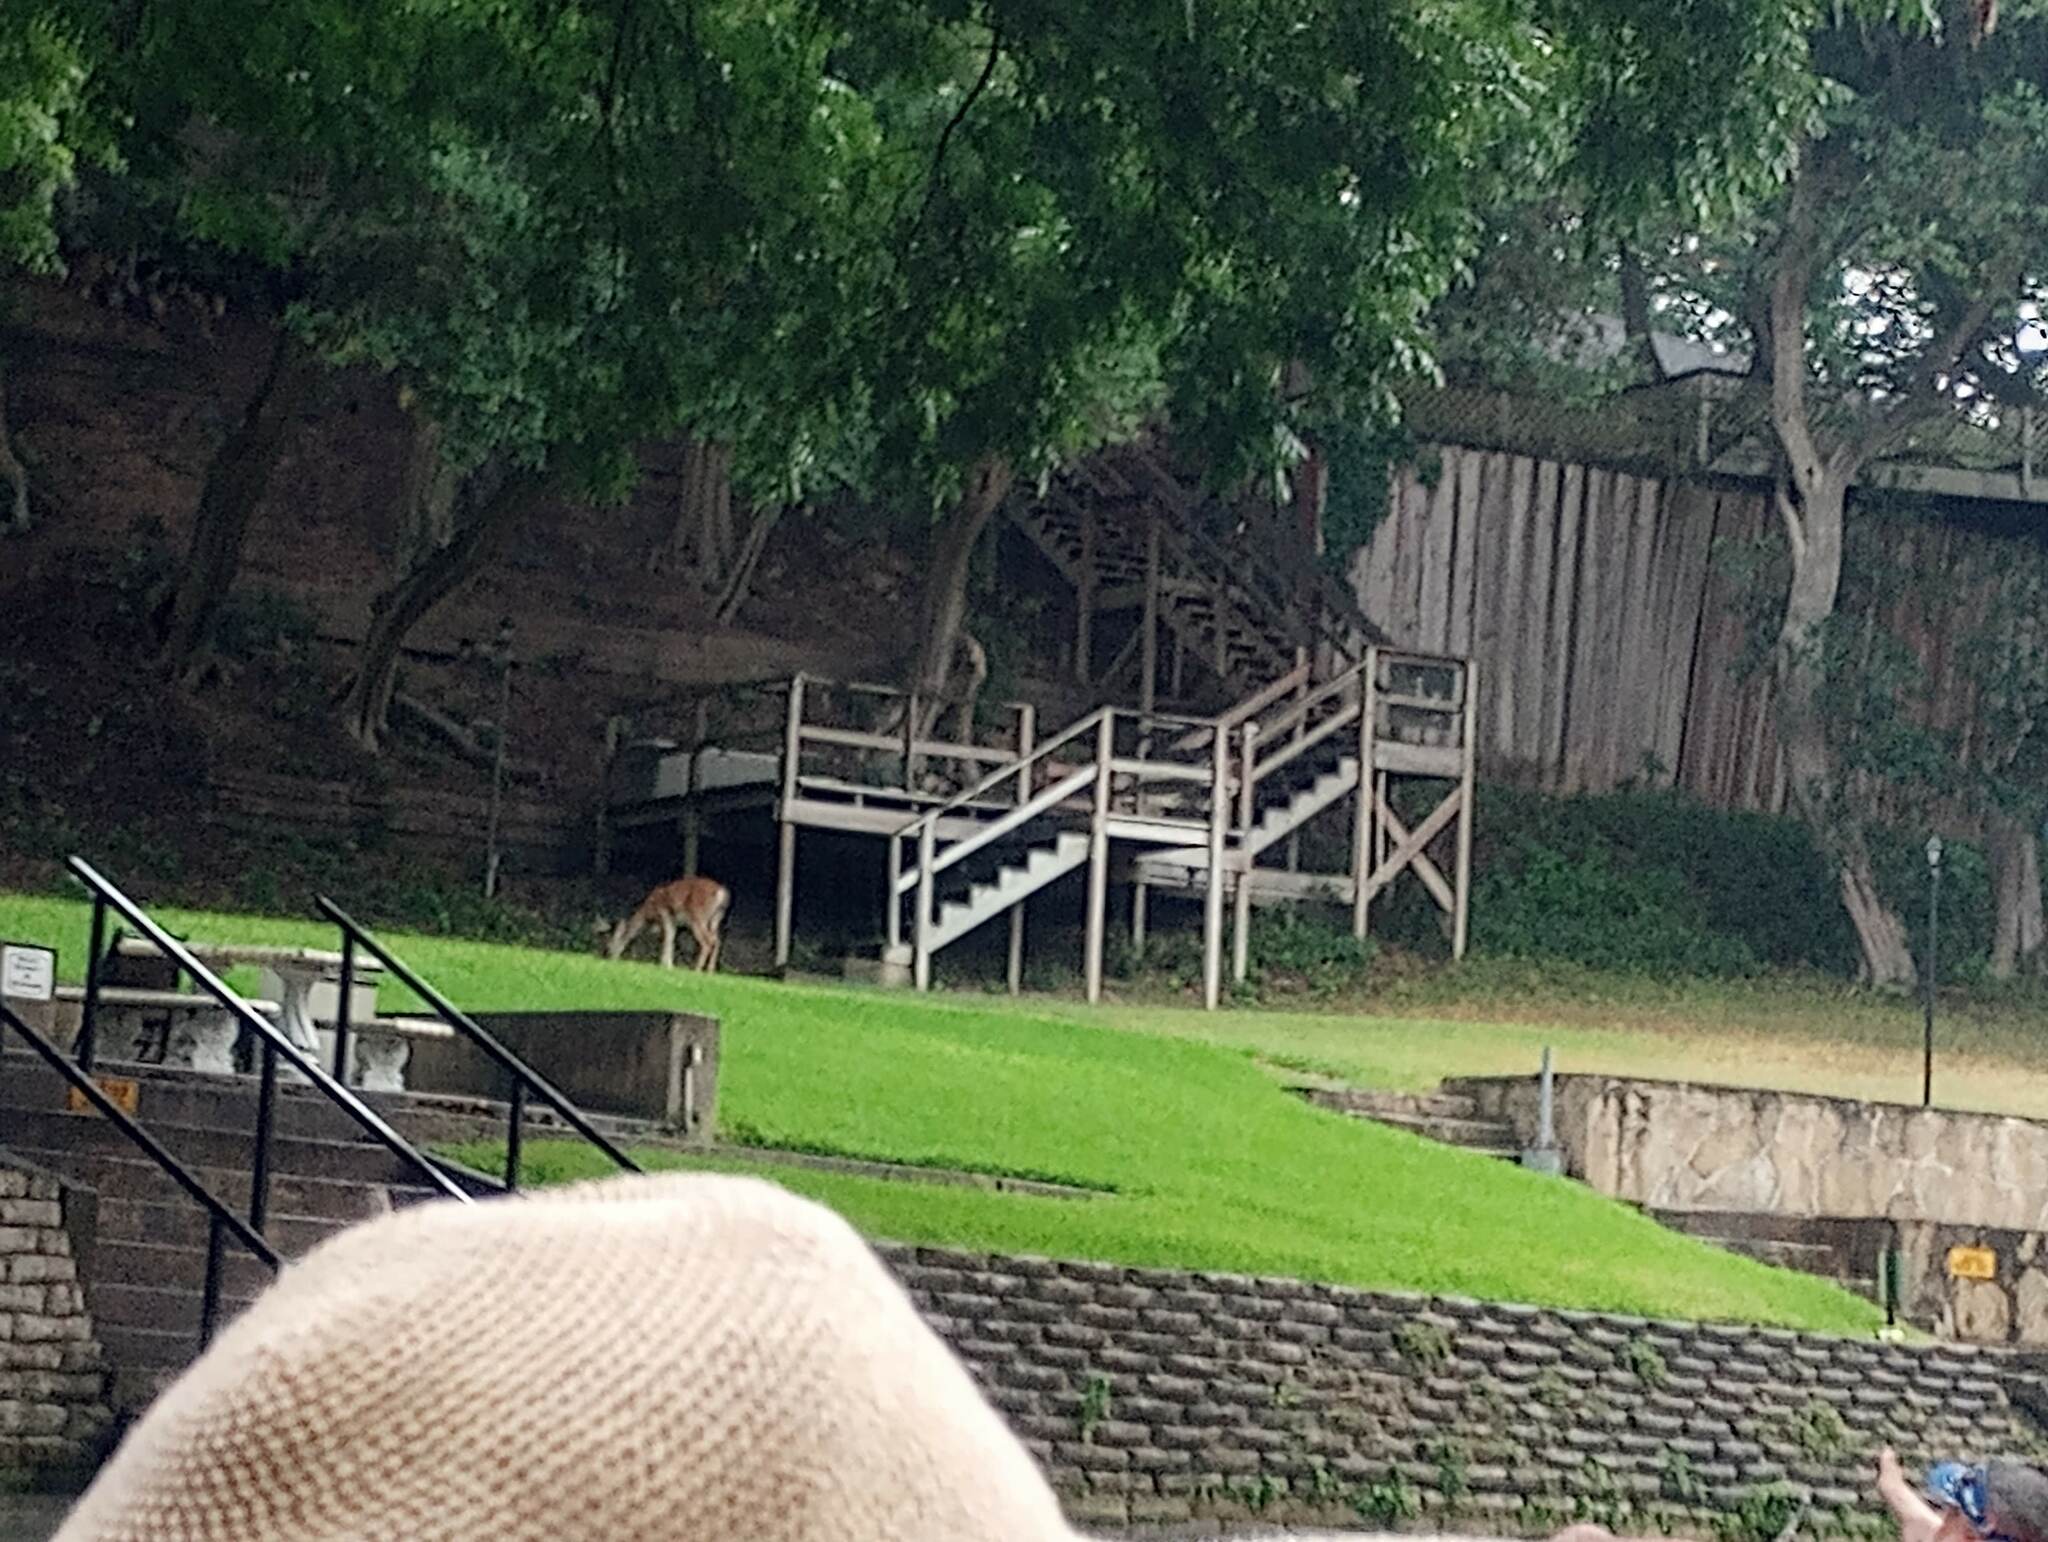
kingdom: Animalia
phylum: Chordata
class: Mammalia
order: Artiodactyla
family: Cervidae
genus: Odocoileus
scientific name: Odocoileus virginianus
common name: White-tailed deer
